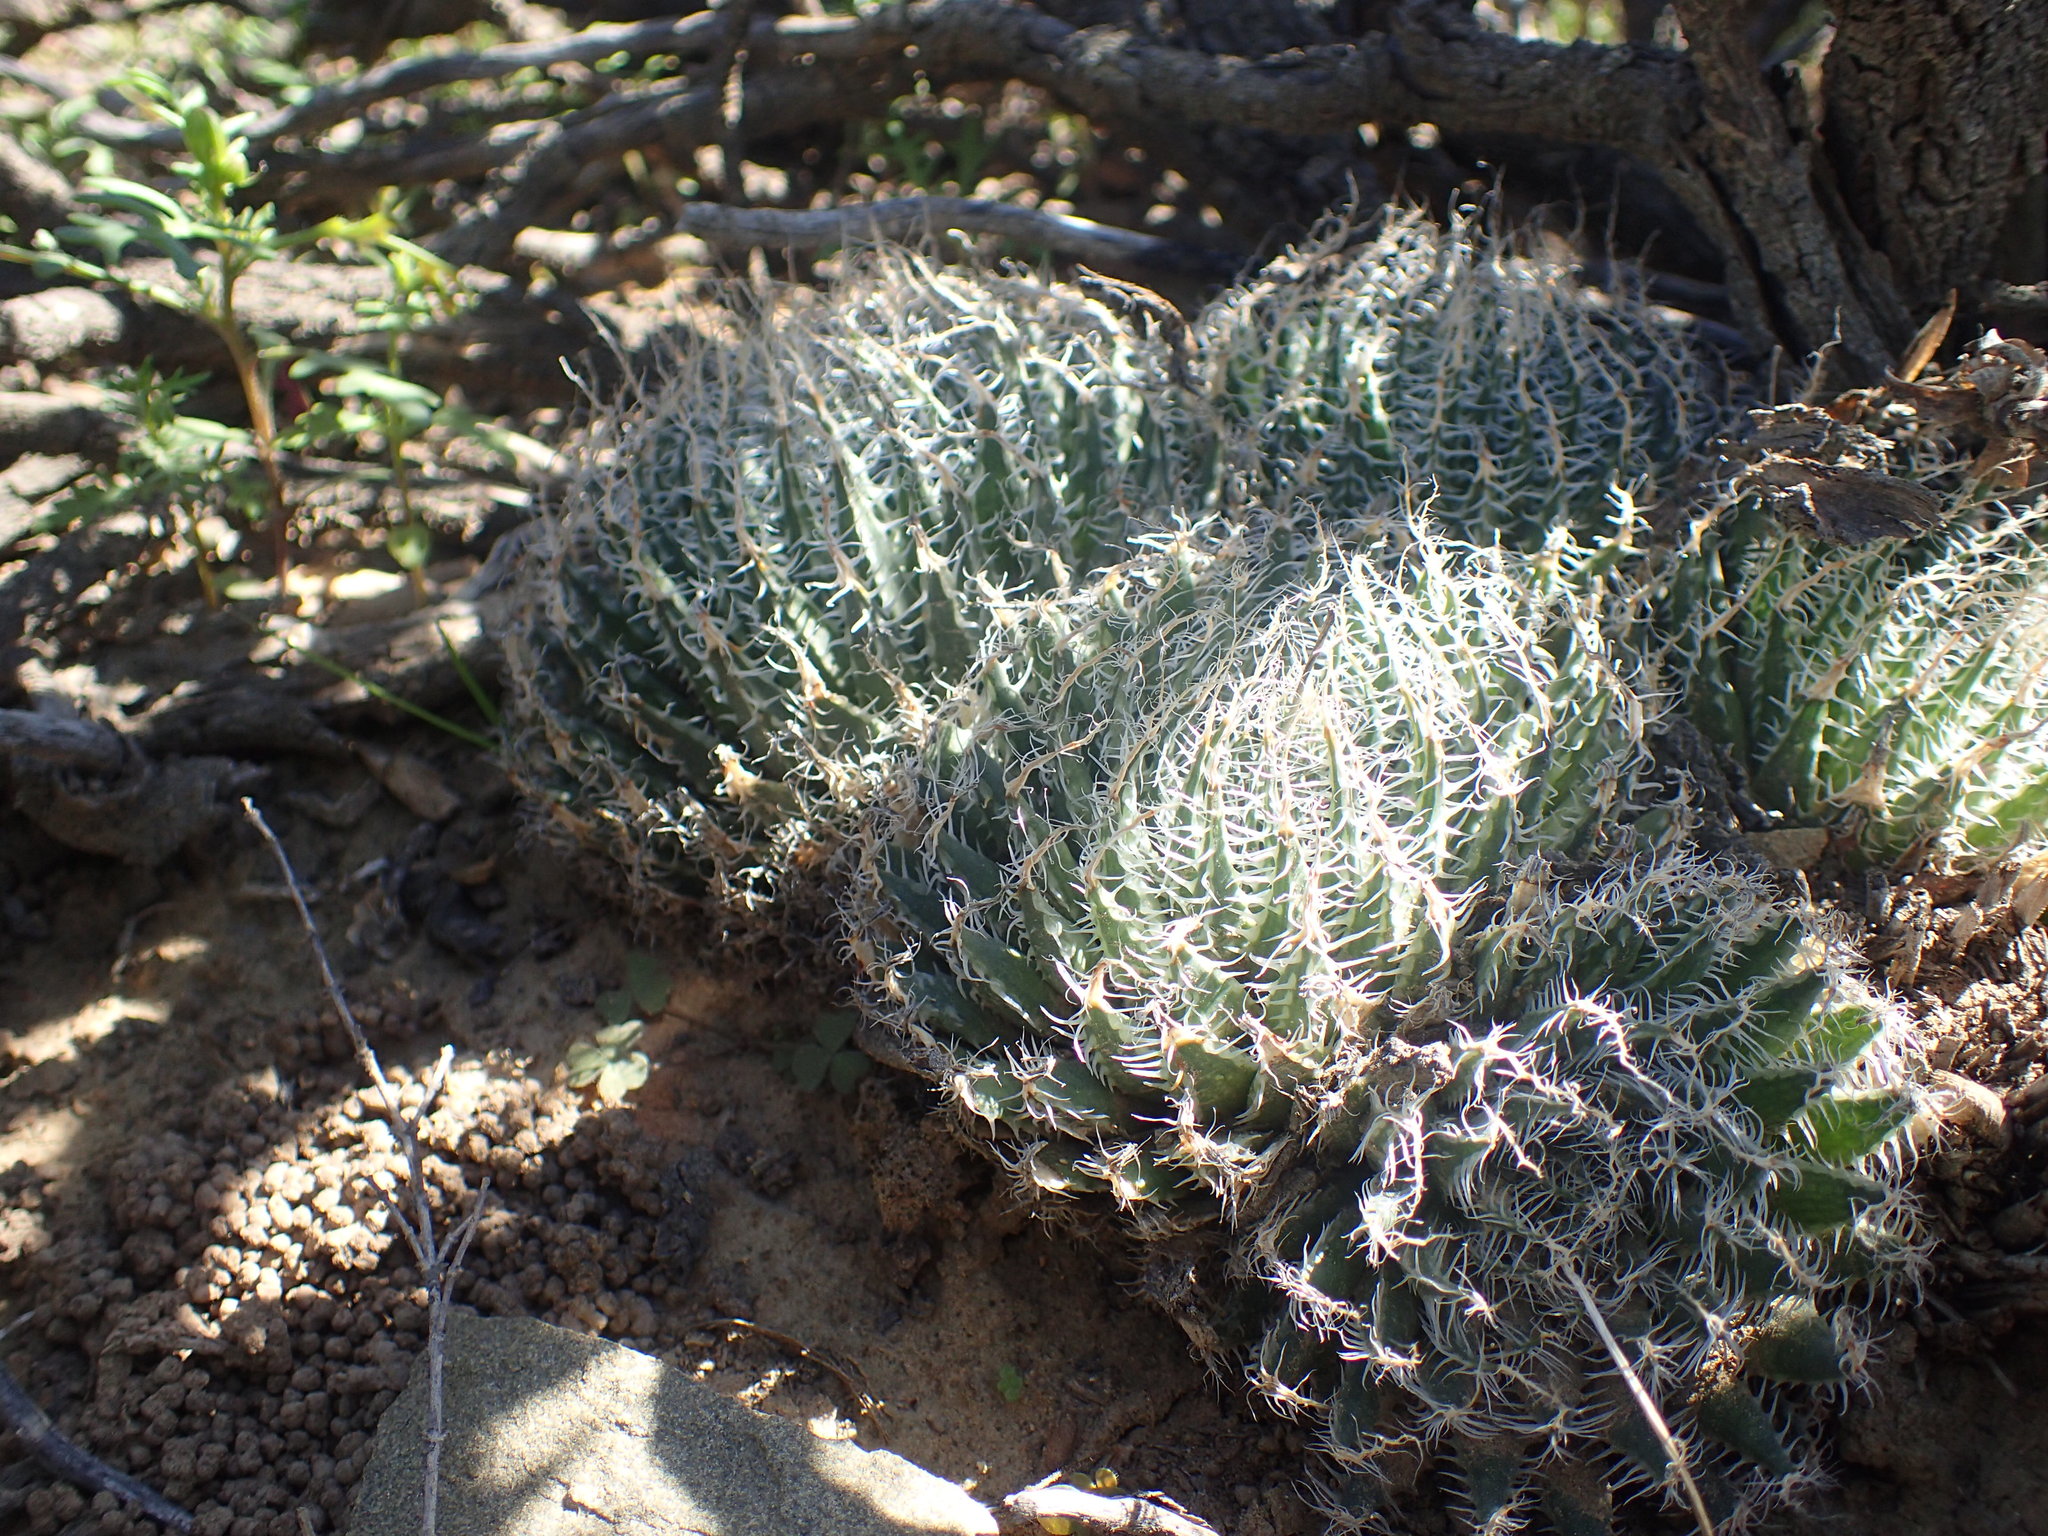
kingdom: Plantae
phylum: Tracheophyta
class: Liliopsida
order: Asparagales
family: Asphodelaceae
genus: Haworthia
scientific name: Haworthia arachnoidea
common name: Cobweb-aloe
